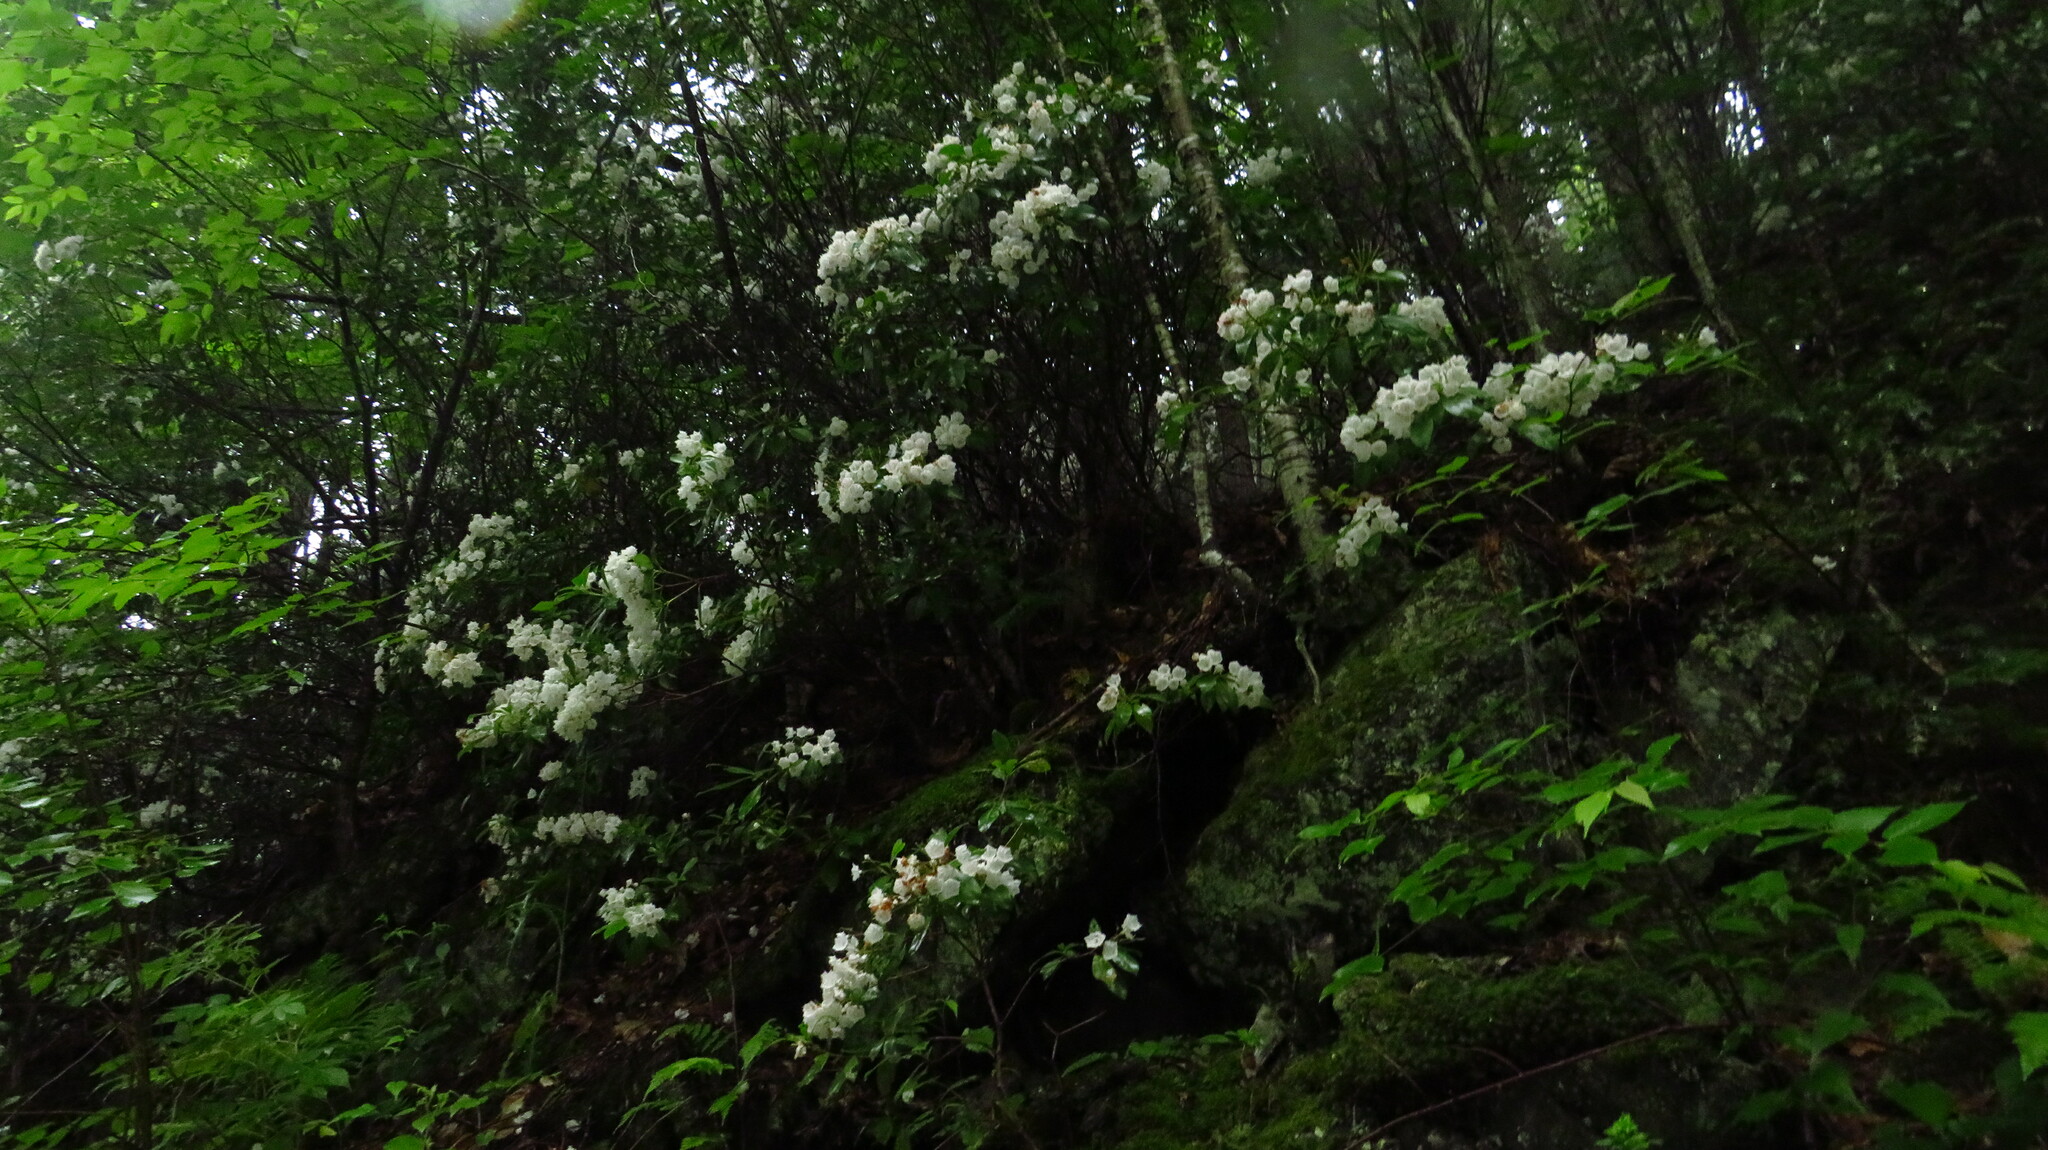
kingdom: Plantae
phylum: Tracheophyta
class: Magnoliopsida
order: Ericales
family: Ericaceae
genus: Kalmia
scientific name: Kalmia latifolia
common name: Mountain-laurel
